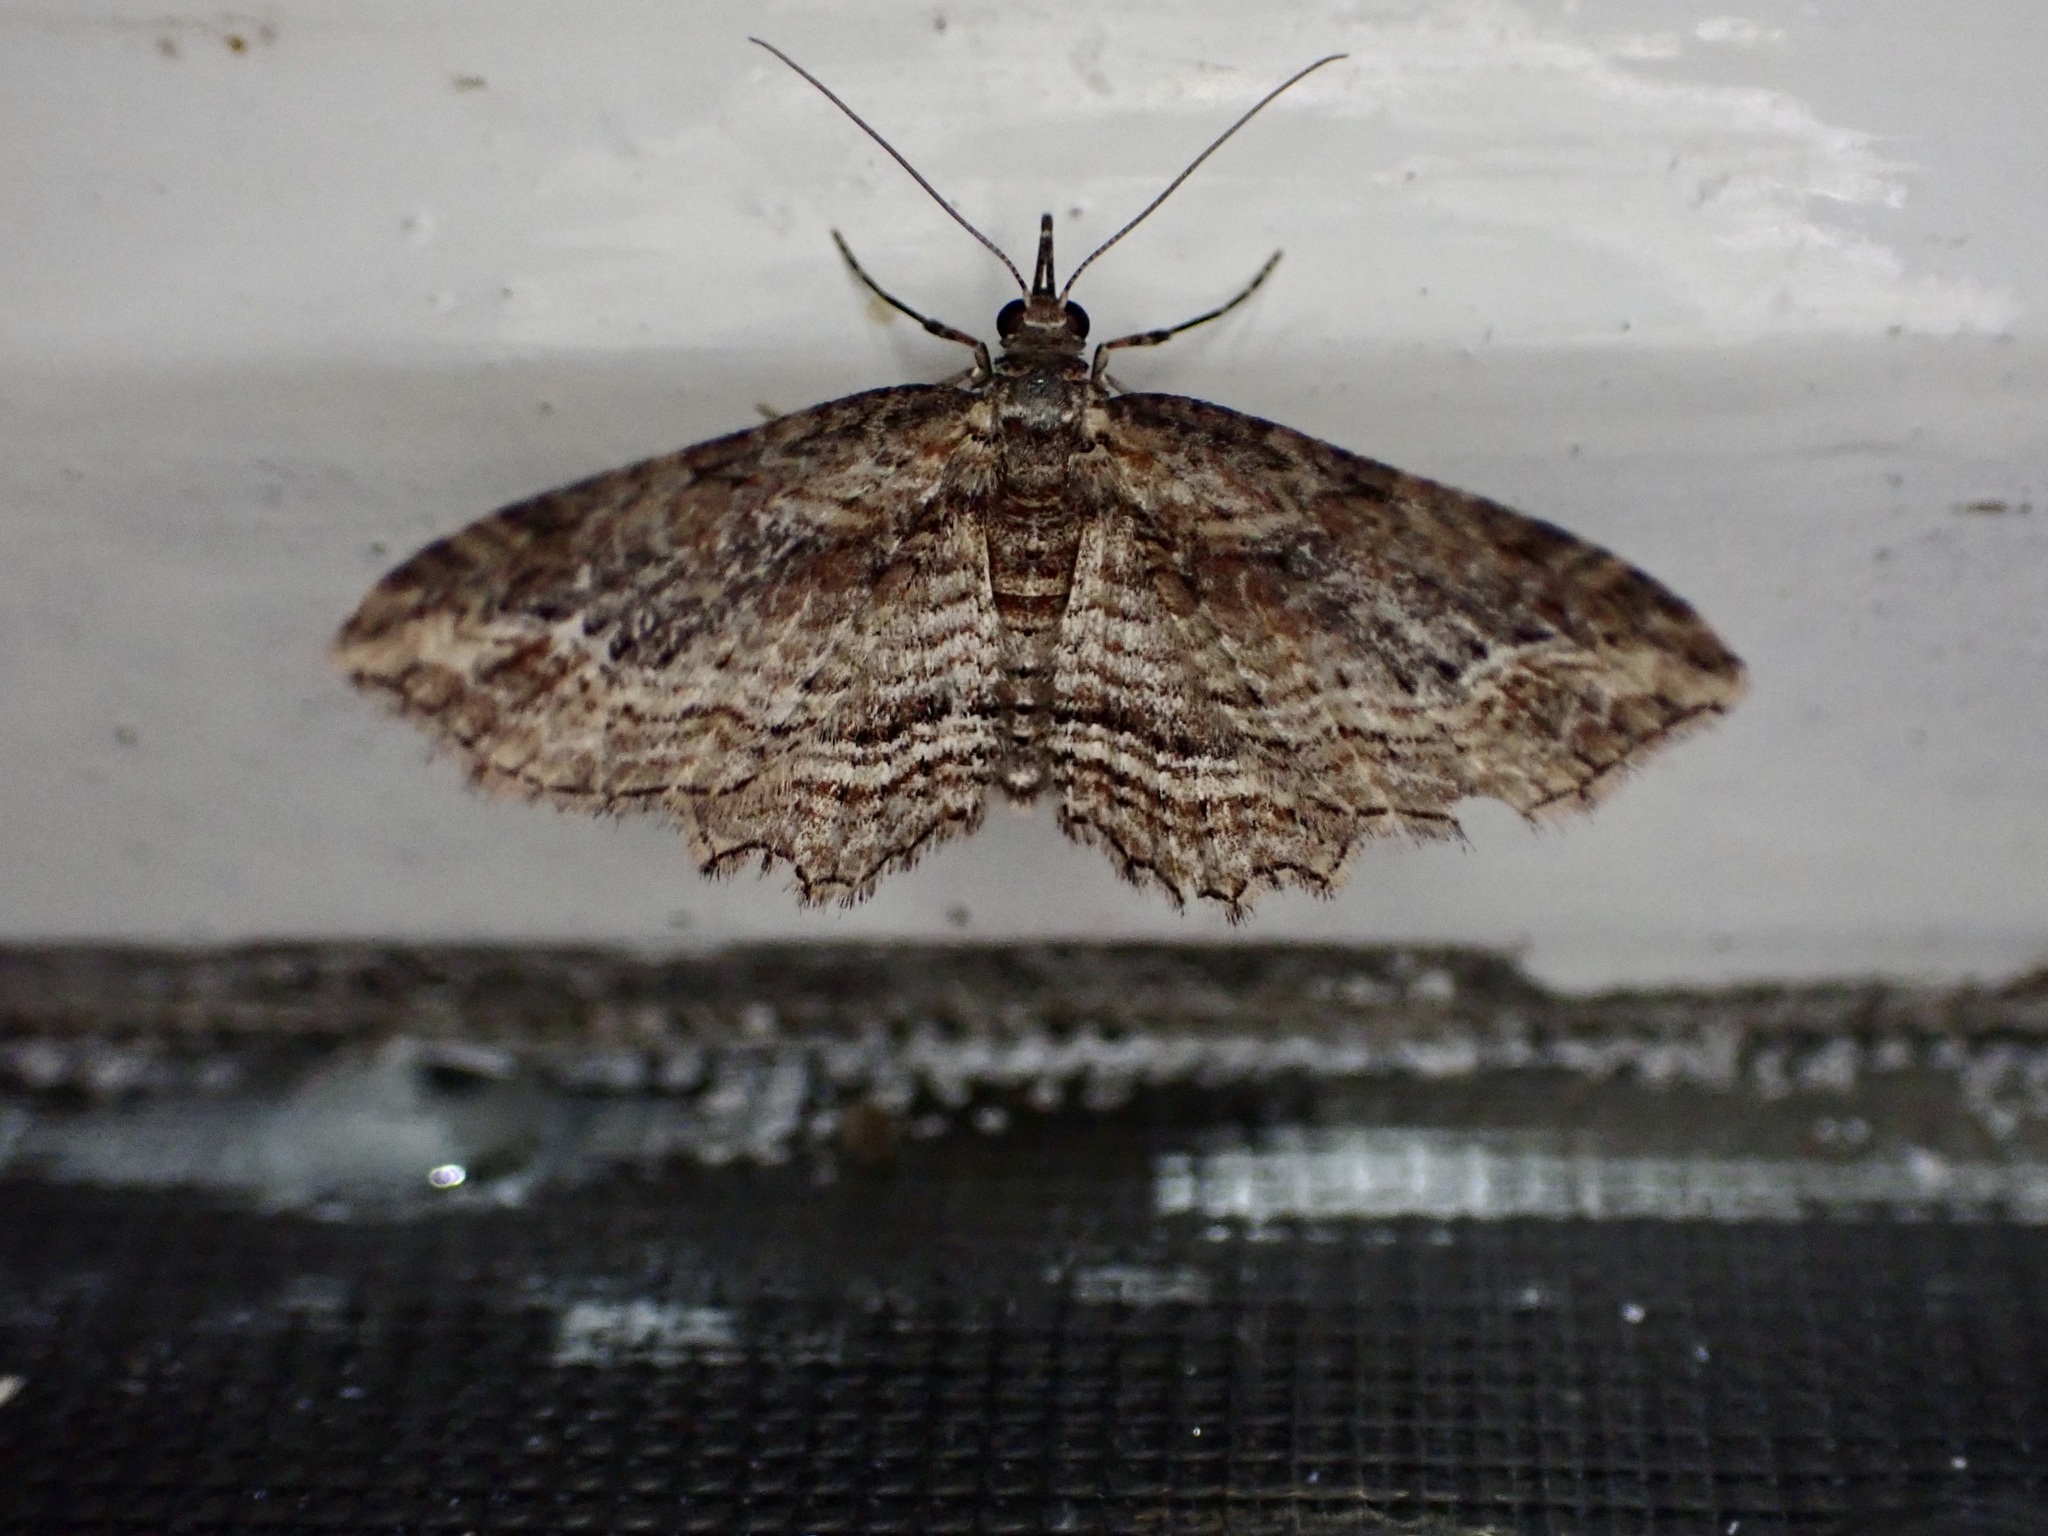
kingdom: Animalia
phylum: Arthropoda
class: Insecta
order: Lepidoptera
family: Geometridae
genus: Chloroclystis
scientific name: Chloroclystis filata
